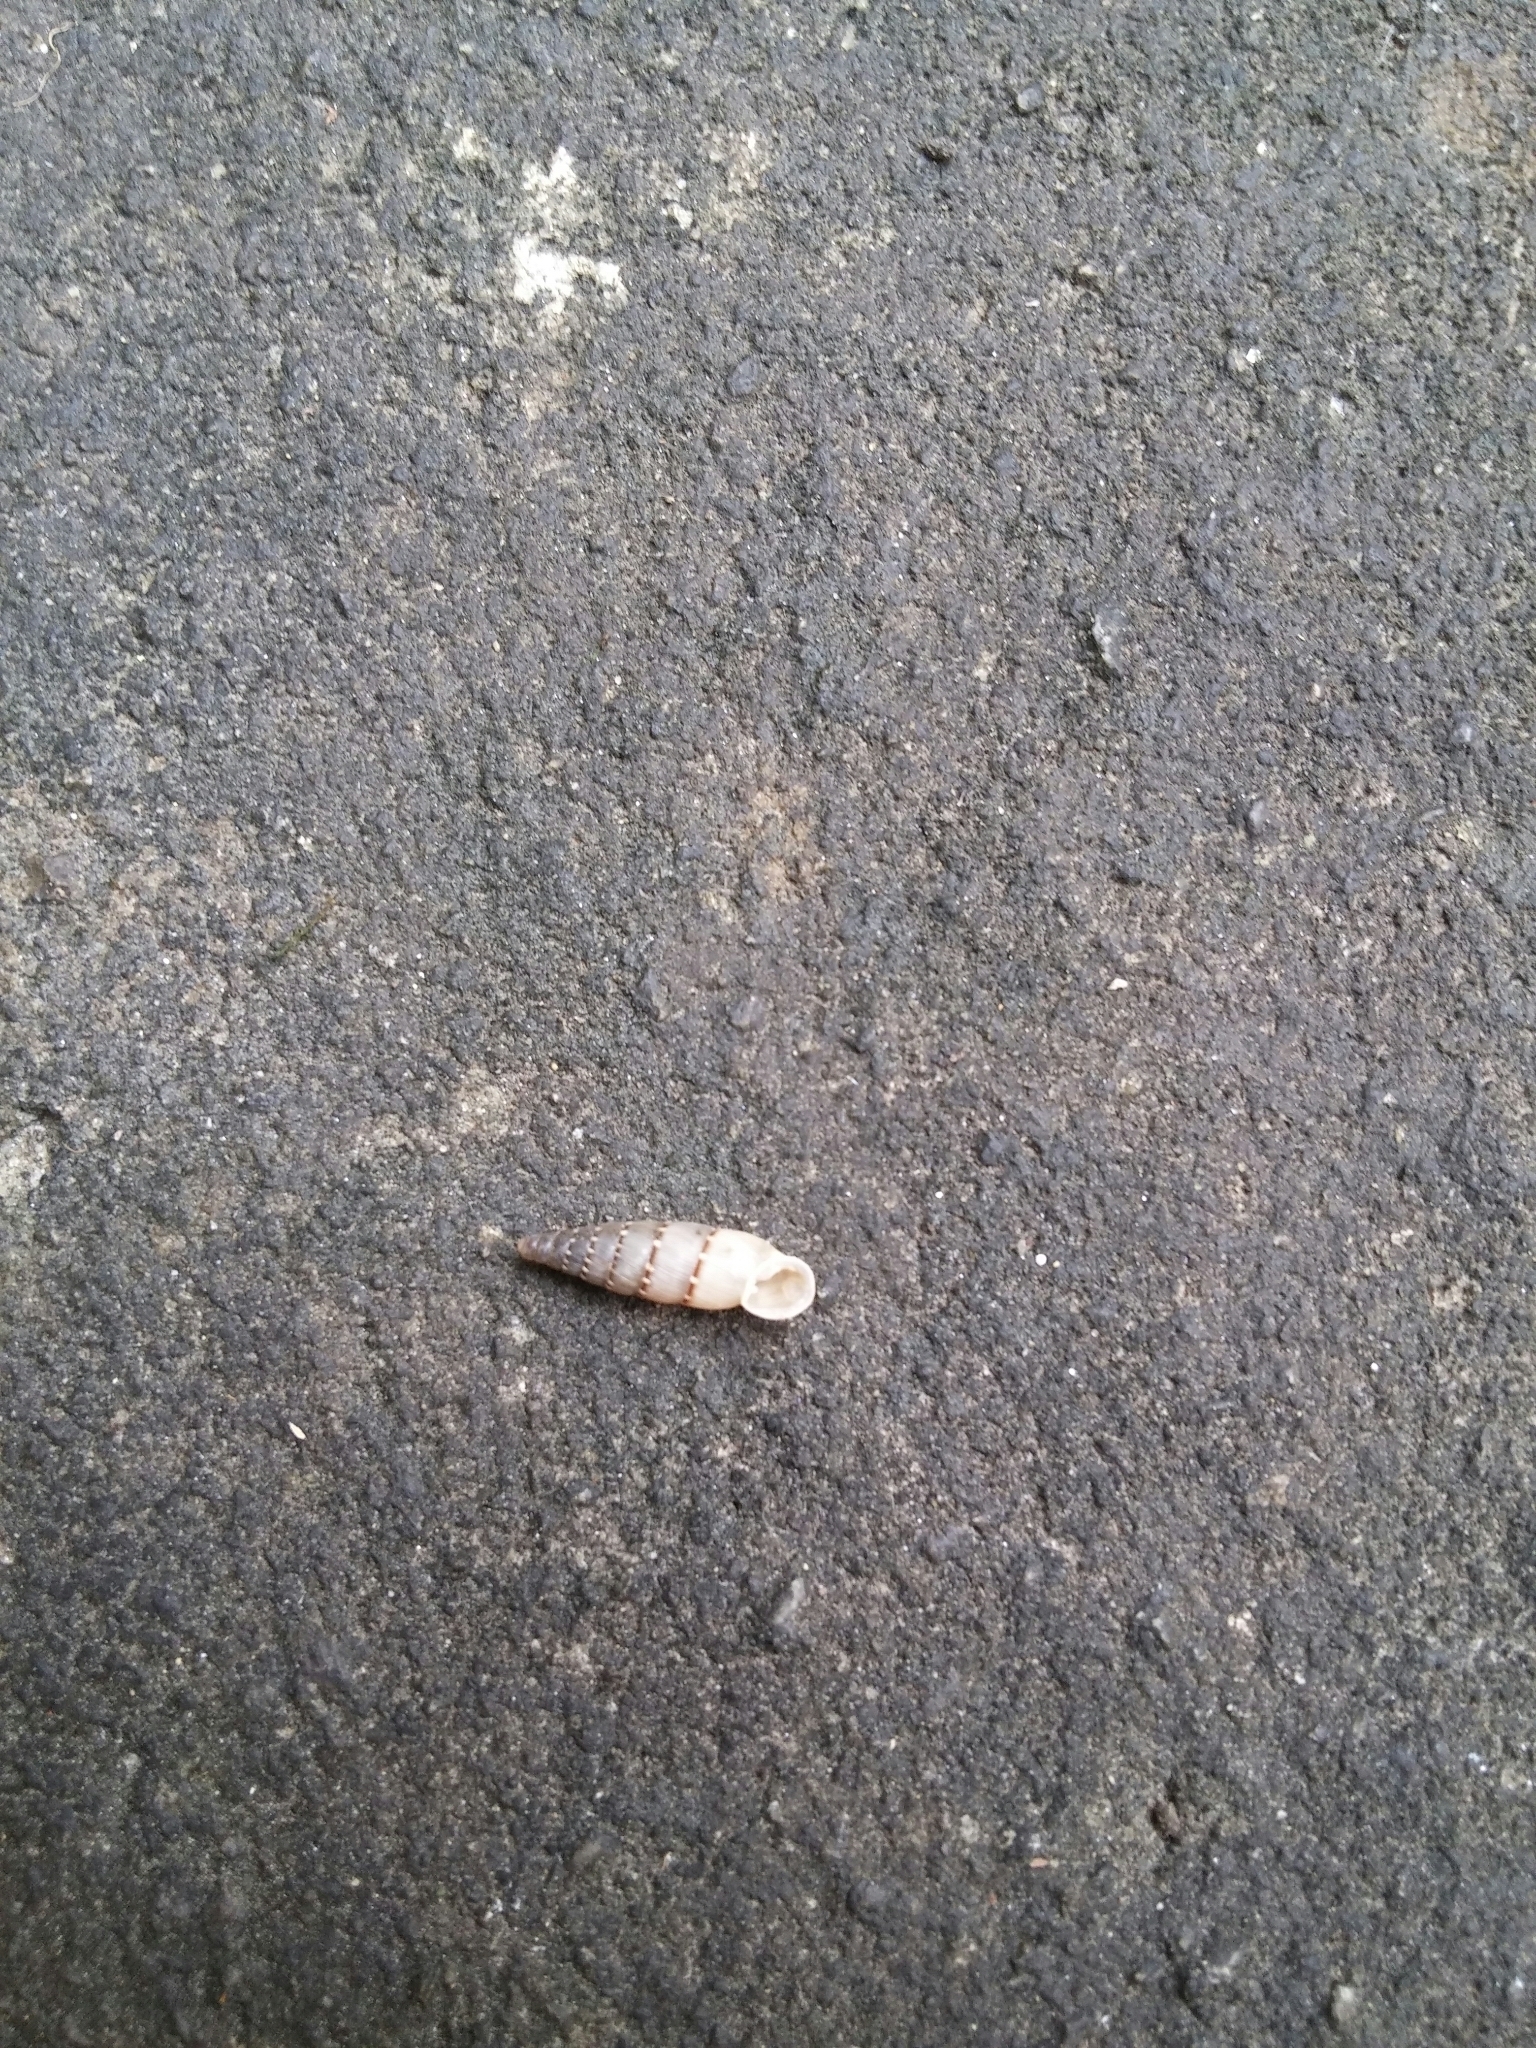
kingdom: Animalia
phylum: Mollusca
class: Gastropoda
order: Stylommatophora
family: Clausiliidae
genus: Papillifera
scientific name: Papillifera papillaris
